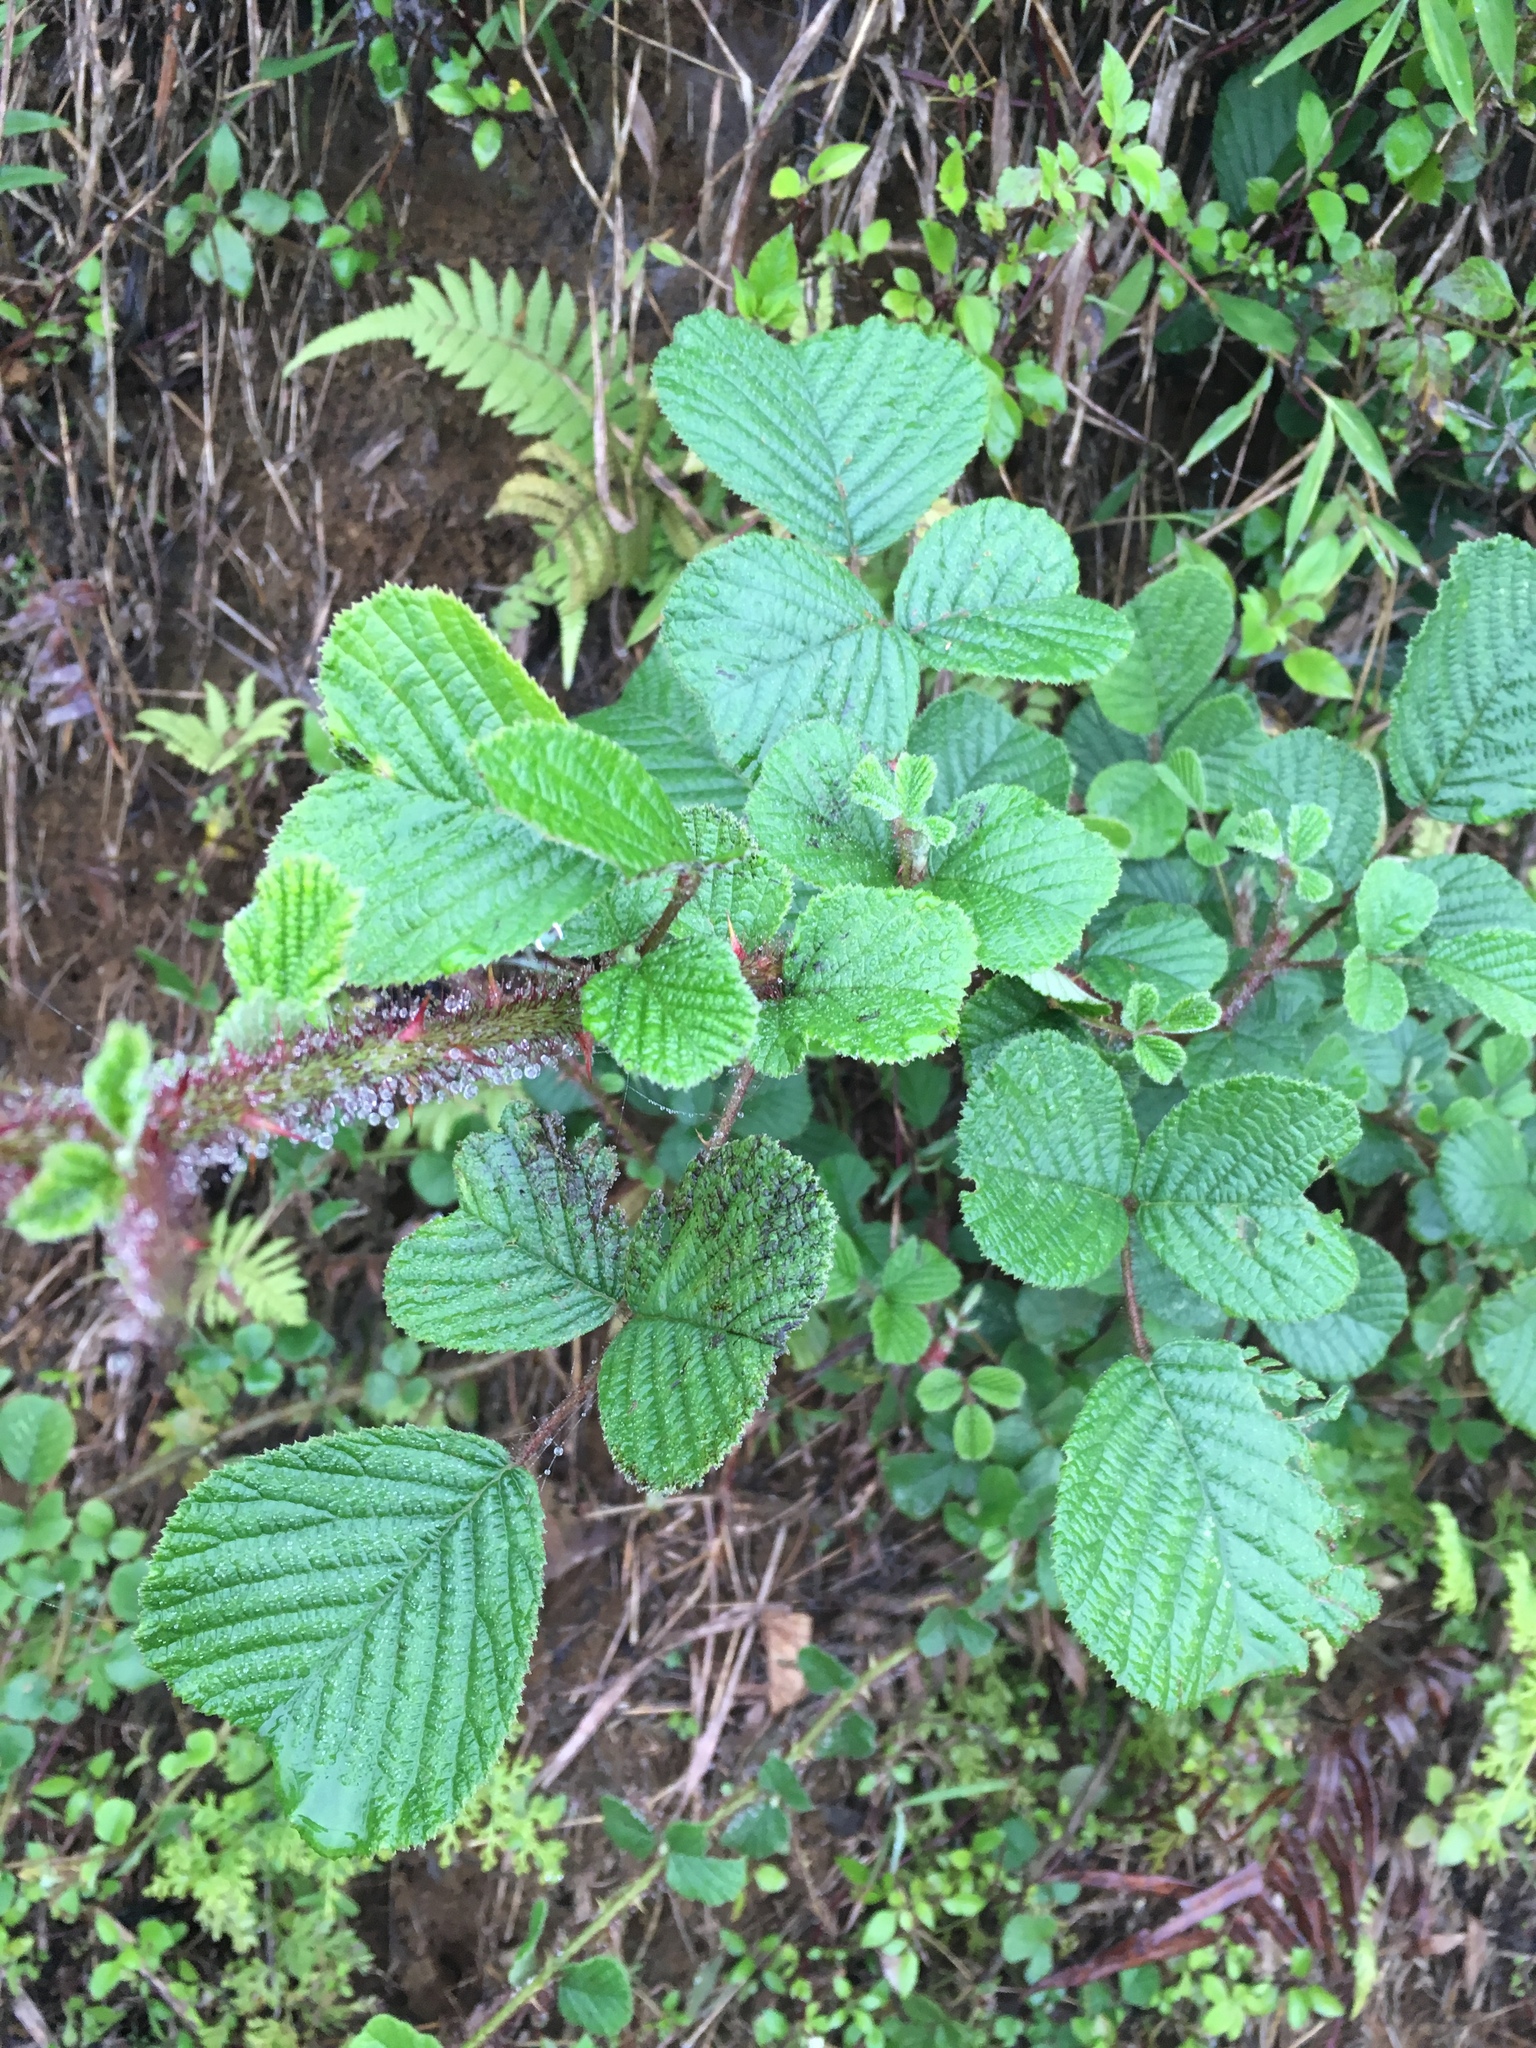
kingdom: Plantae
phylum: Tracheophyta
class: Magnoliopsida
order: Rosales
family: Rosaceae
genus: Rubus
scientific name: Rubus ellipticus
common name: Cheeseberry
